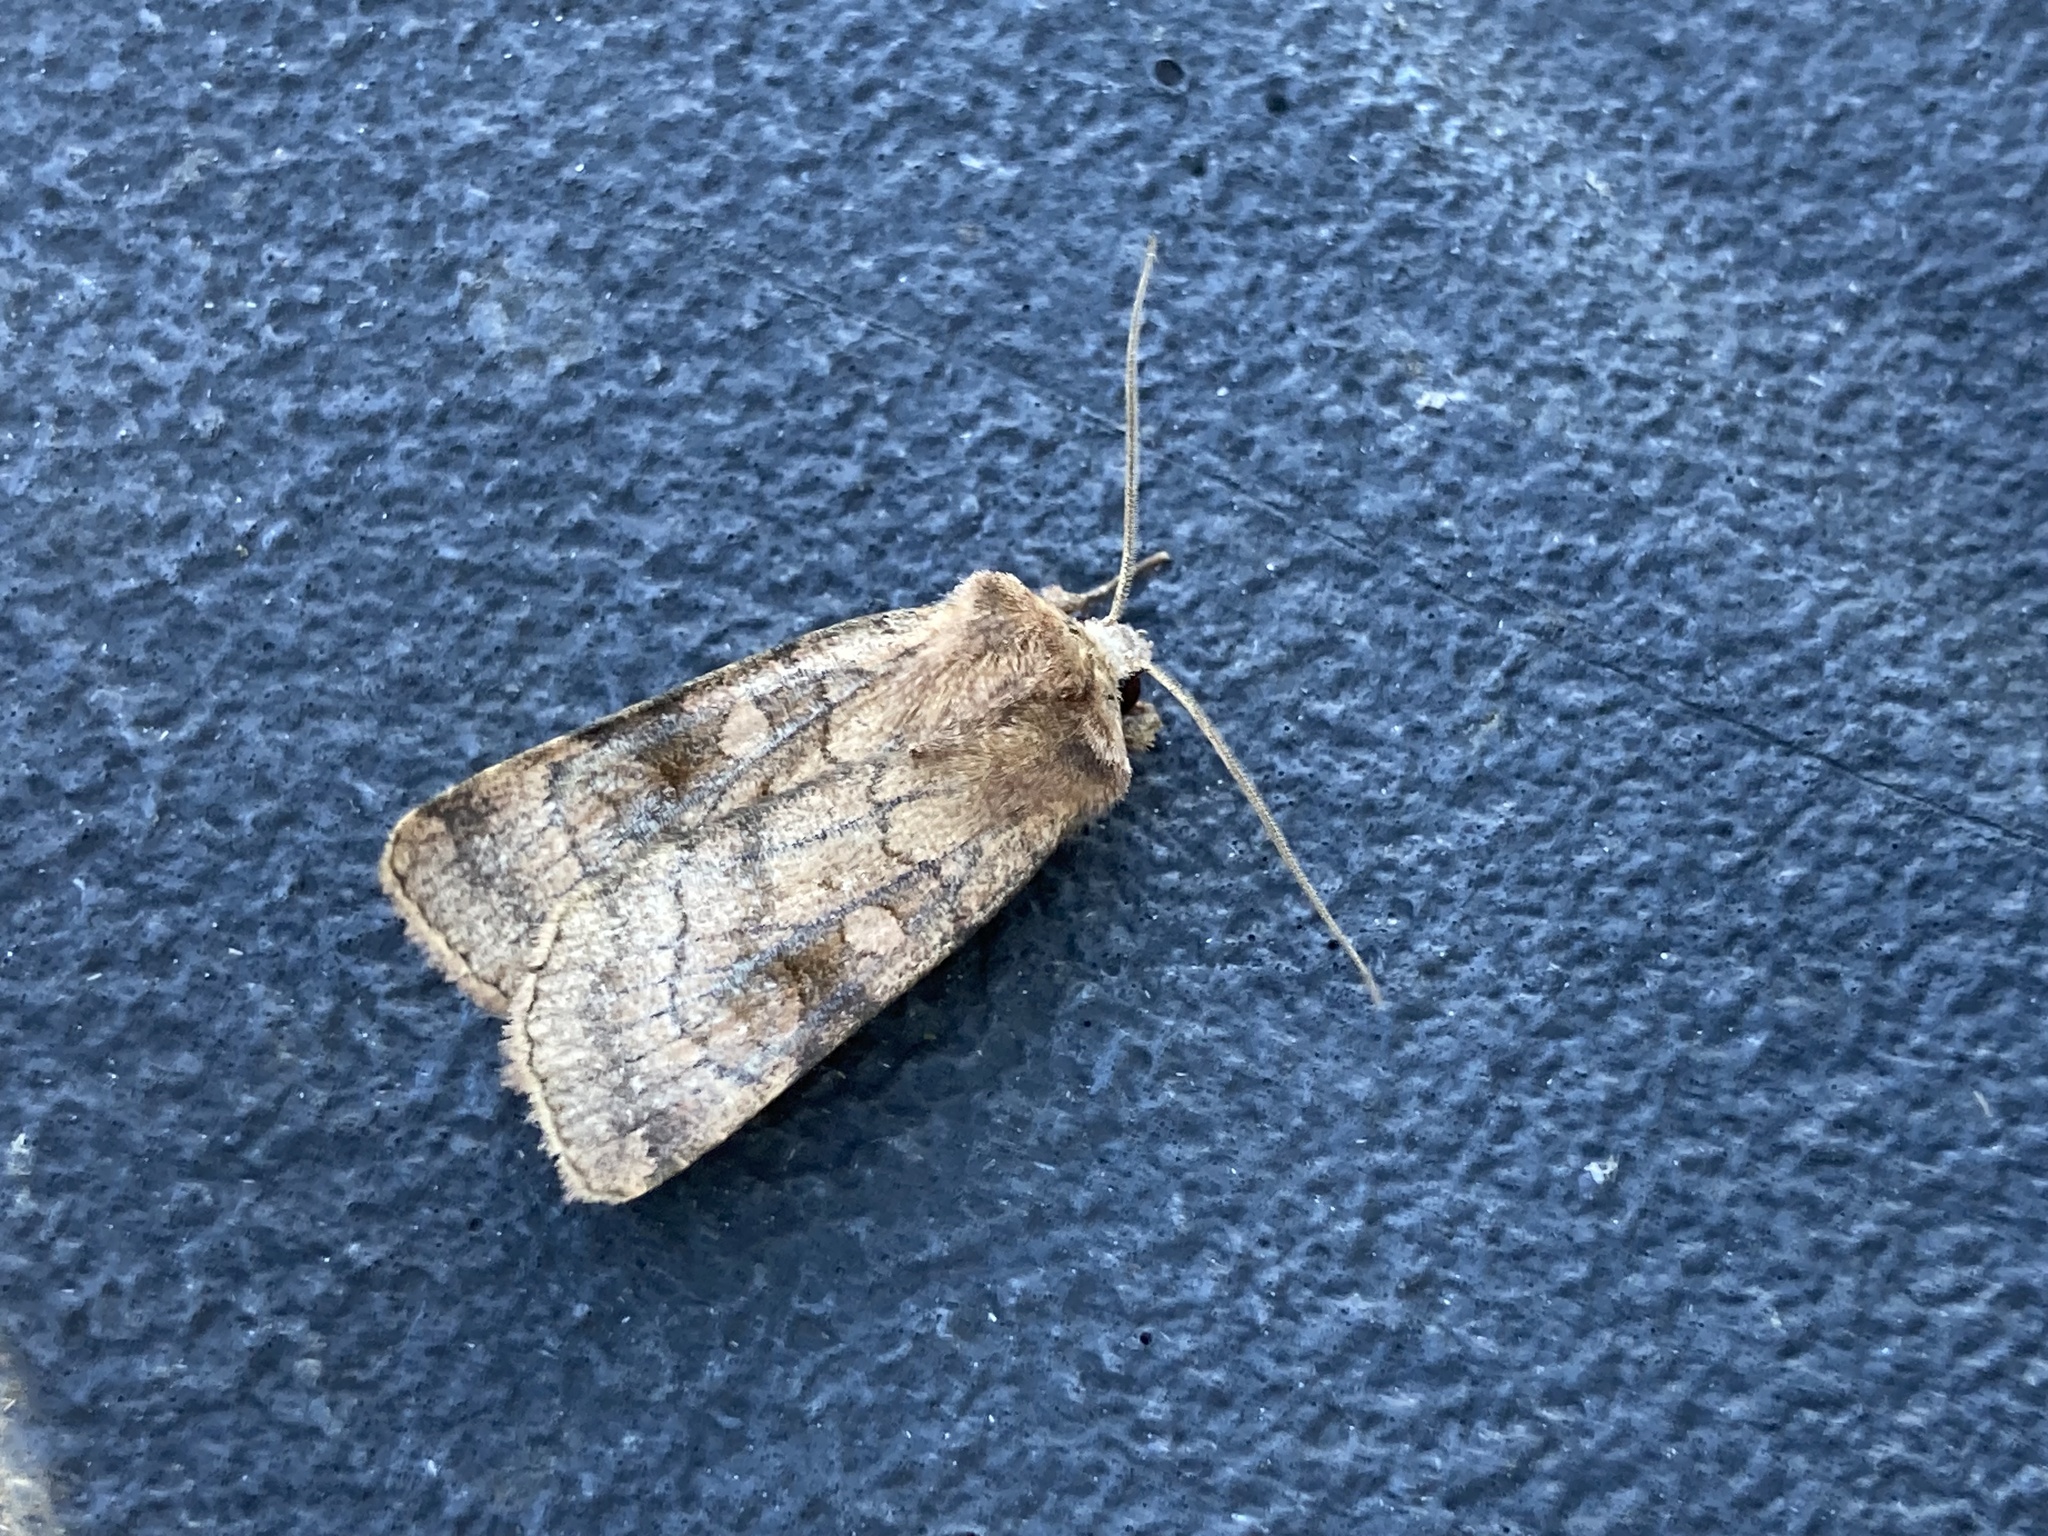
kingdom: Animalia
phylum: Arthropoda
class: Insecta
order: Lepidoptera
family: Noctuidae
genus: Xestia
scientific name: Xestia sexstrigata
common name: Six-striped rustic
